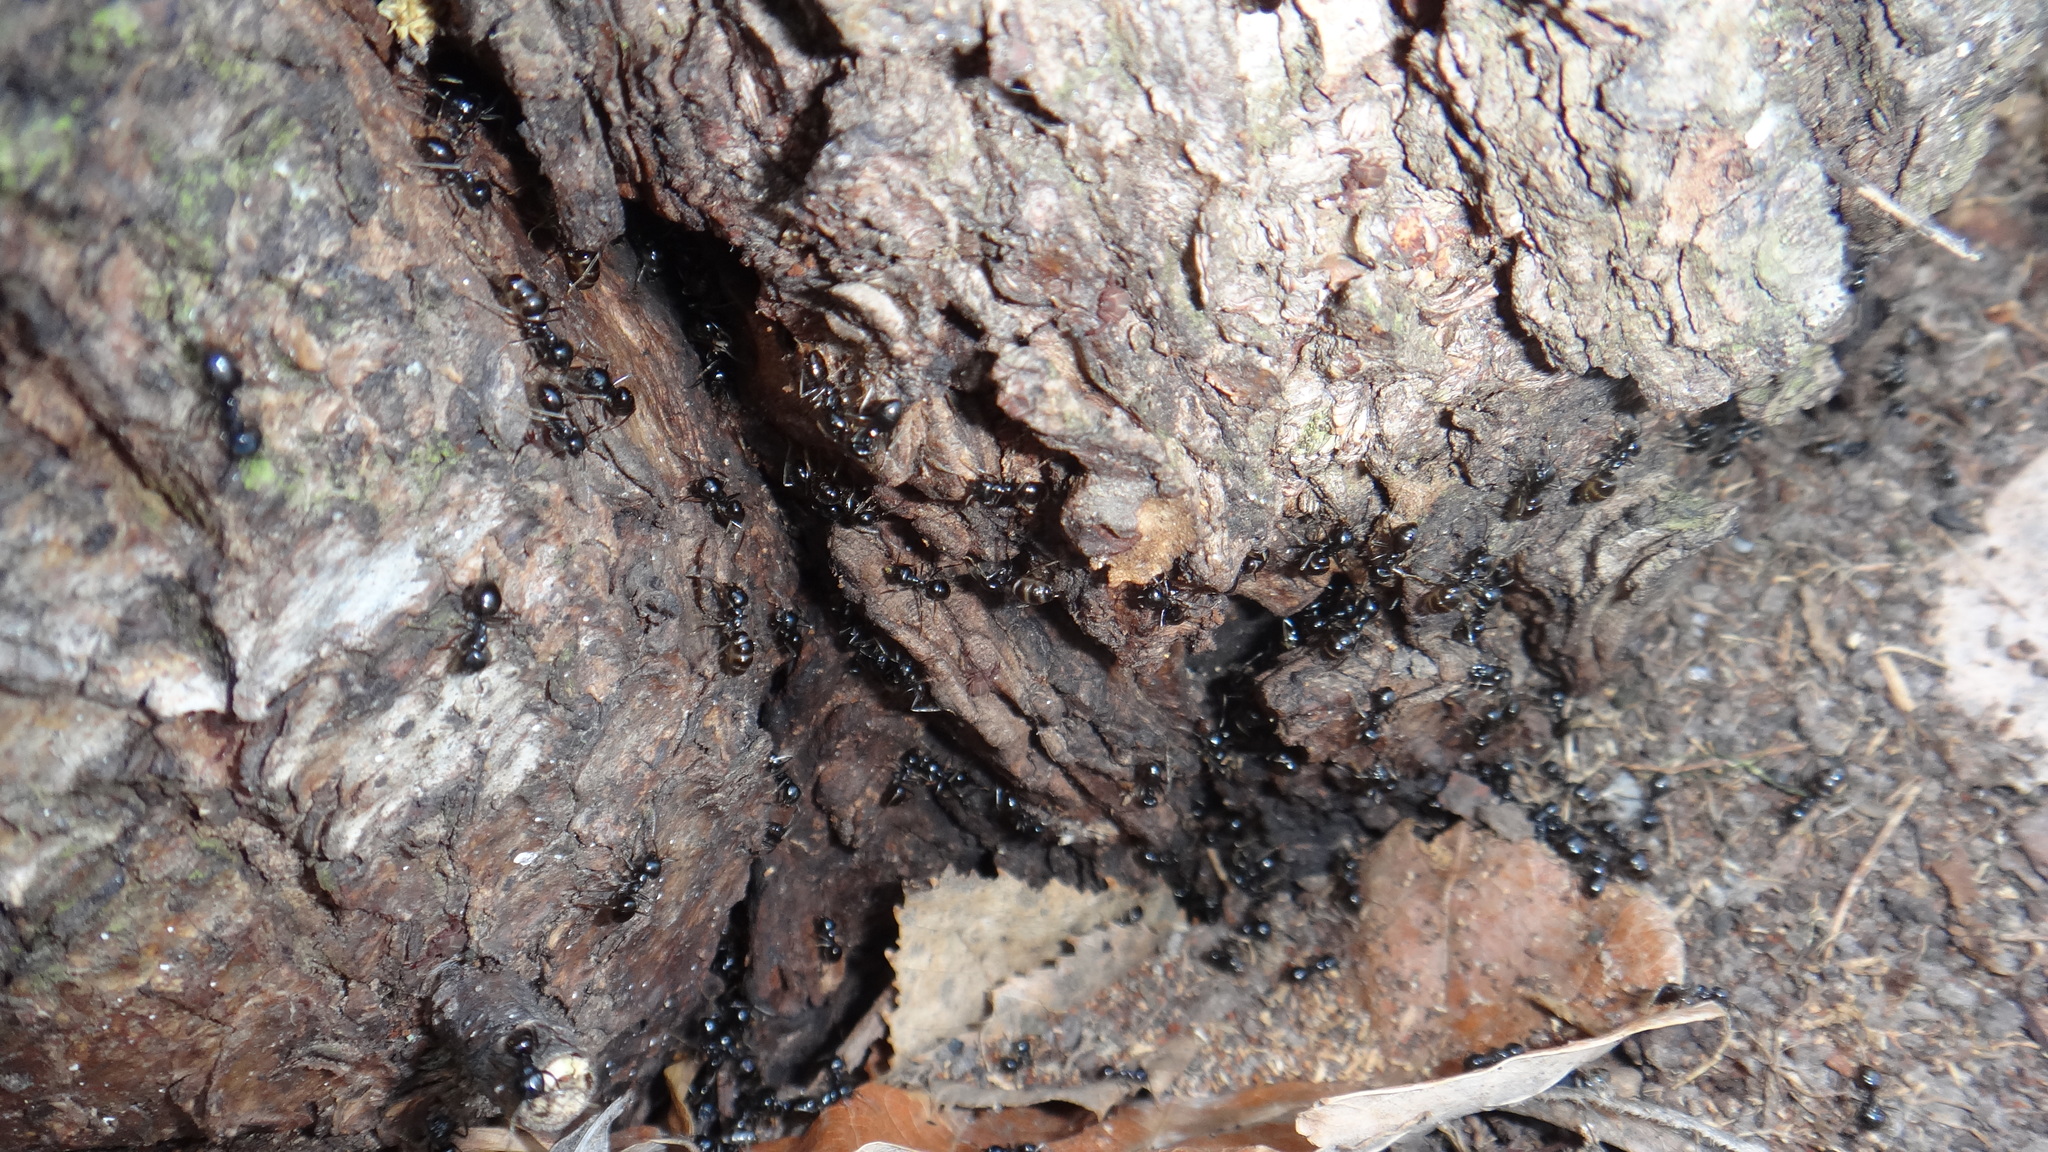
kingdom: Animalia
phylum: Arthropoda
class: Insecta
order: Hymenoptera
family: Formicidae
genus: Lasius
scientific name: Lasius fuliginosus
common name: Jet ant
